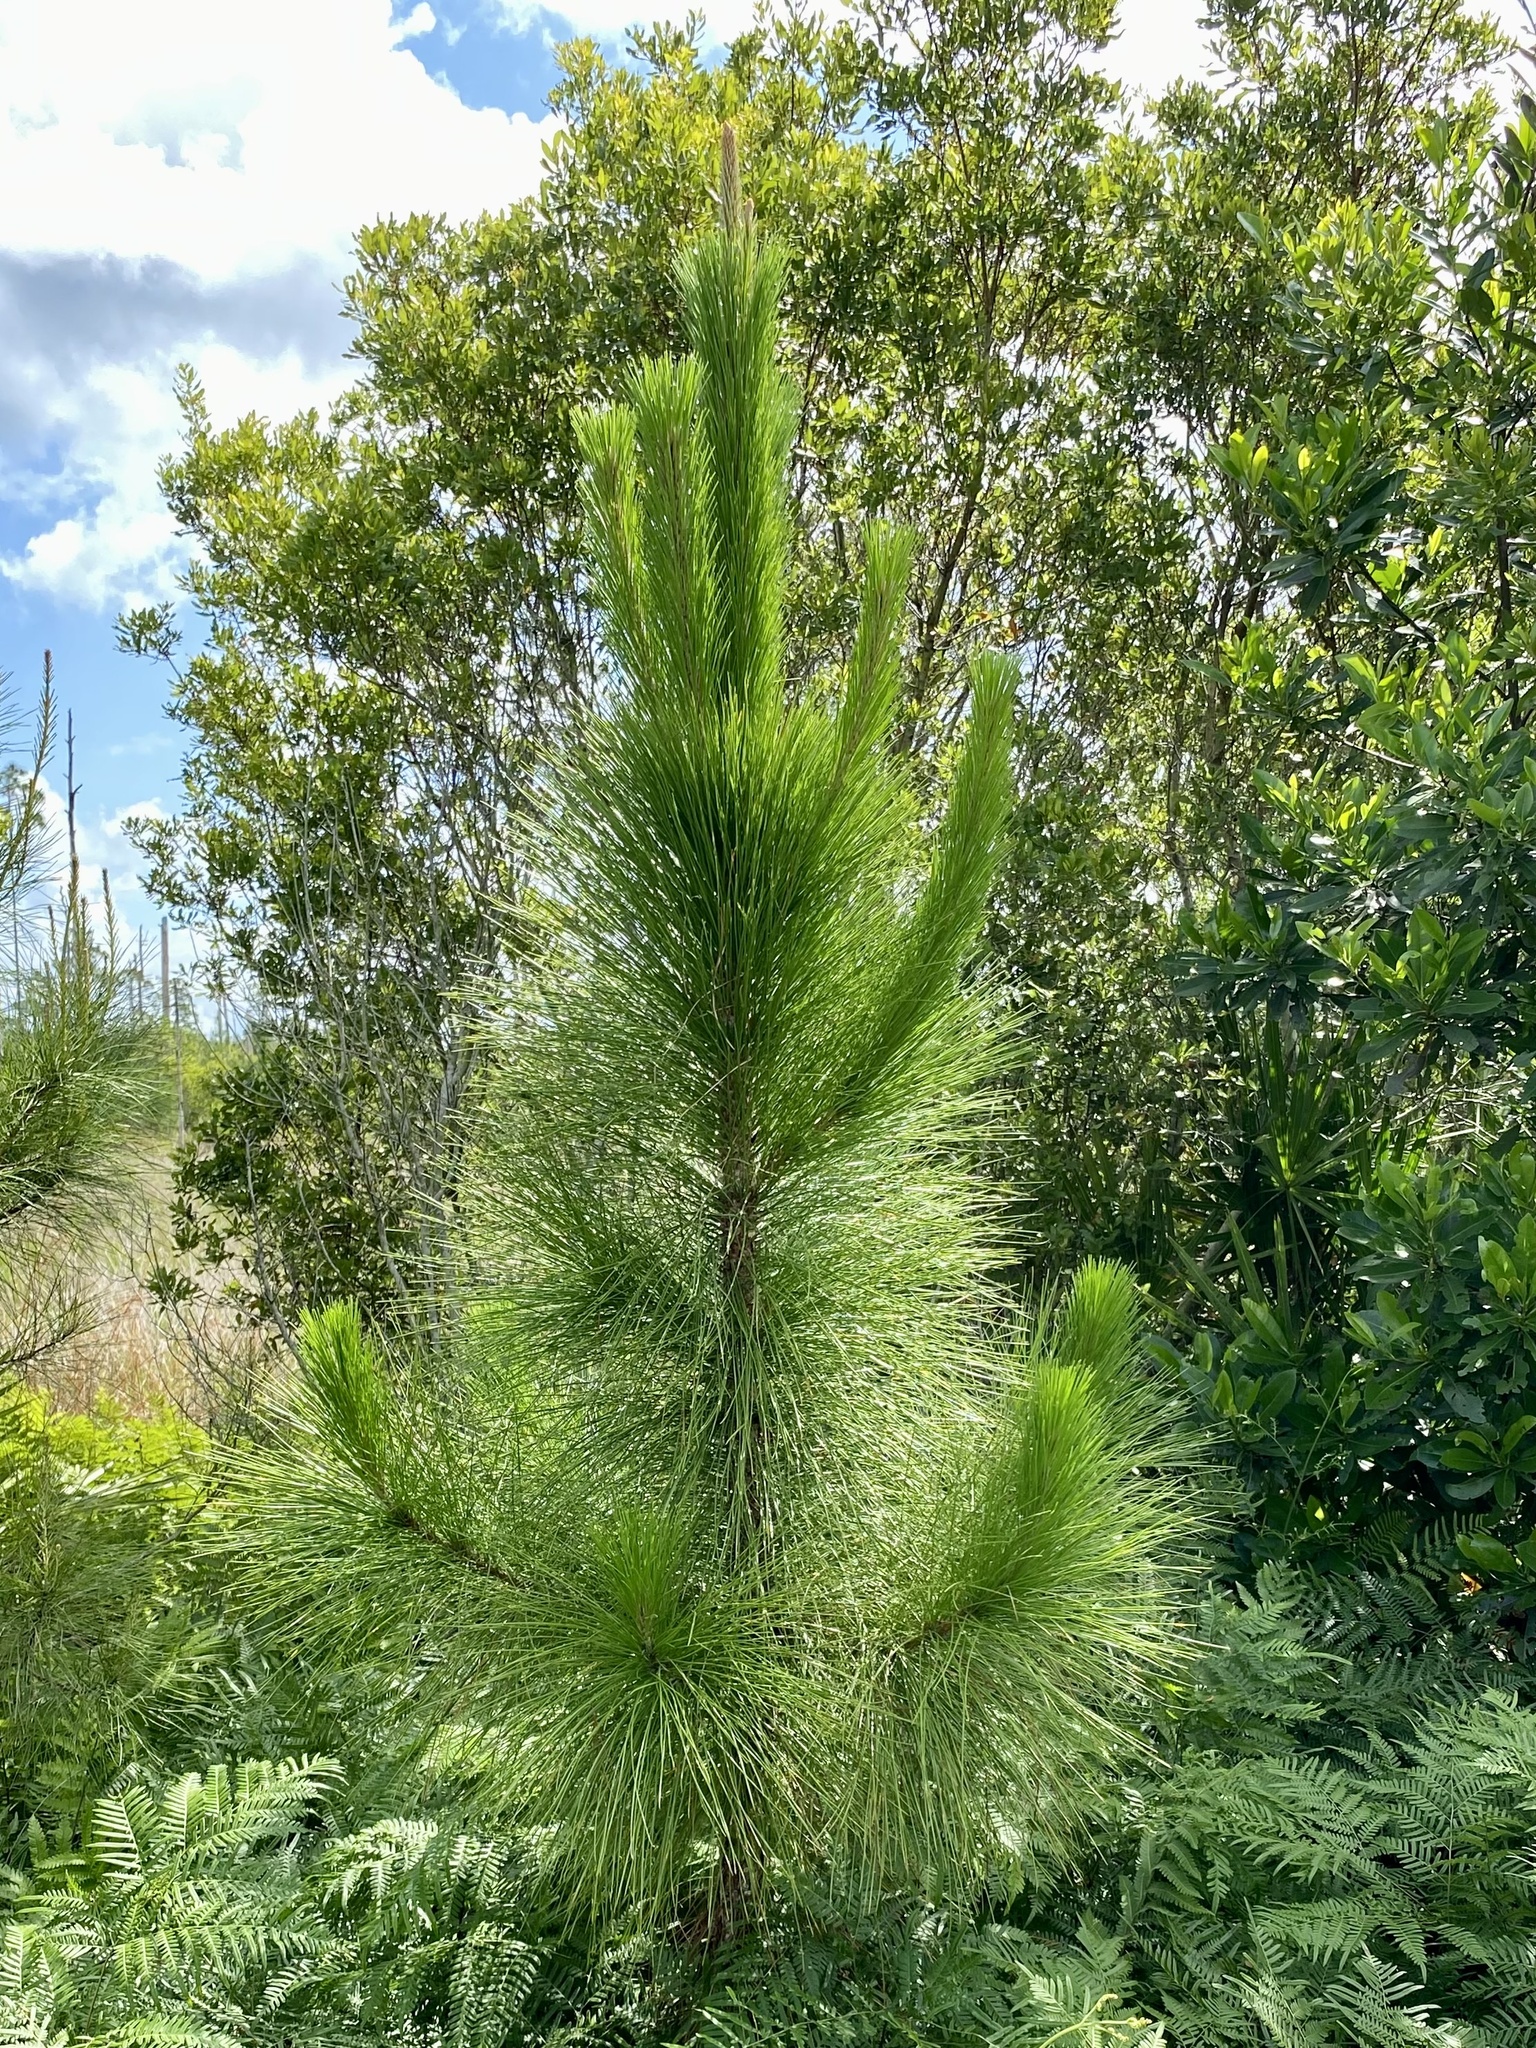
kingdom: Plantae
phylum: Tracheophyta
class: Pinopsida
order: Pinales
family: Pinaceae
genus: Pinus
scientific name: Pinus elliottii
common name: Slash pine
